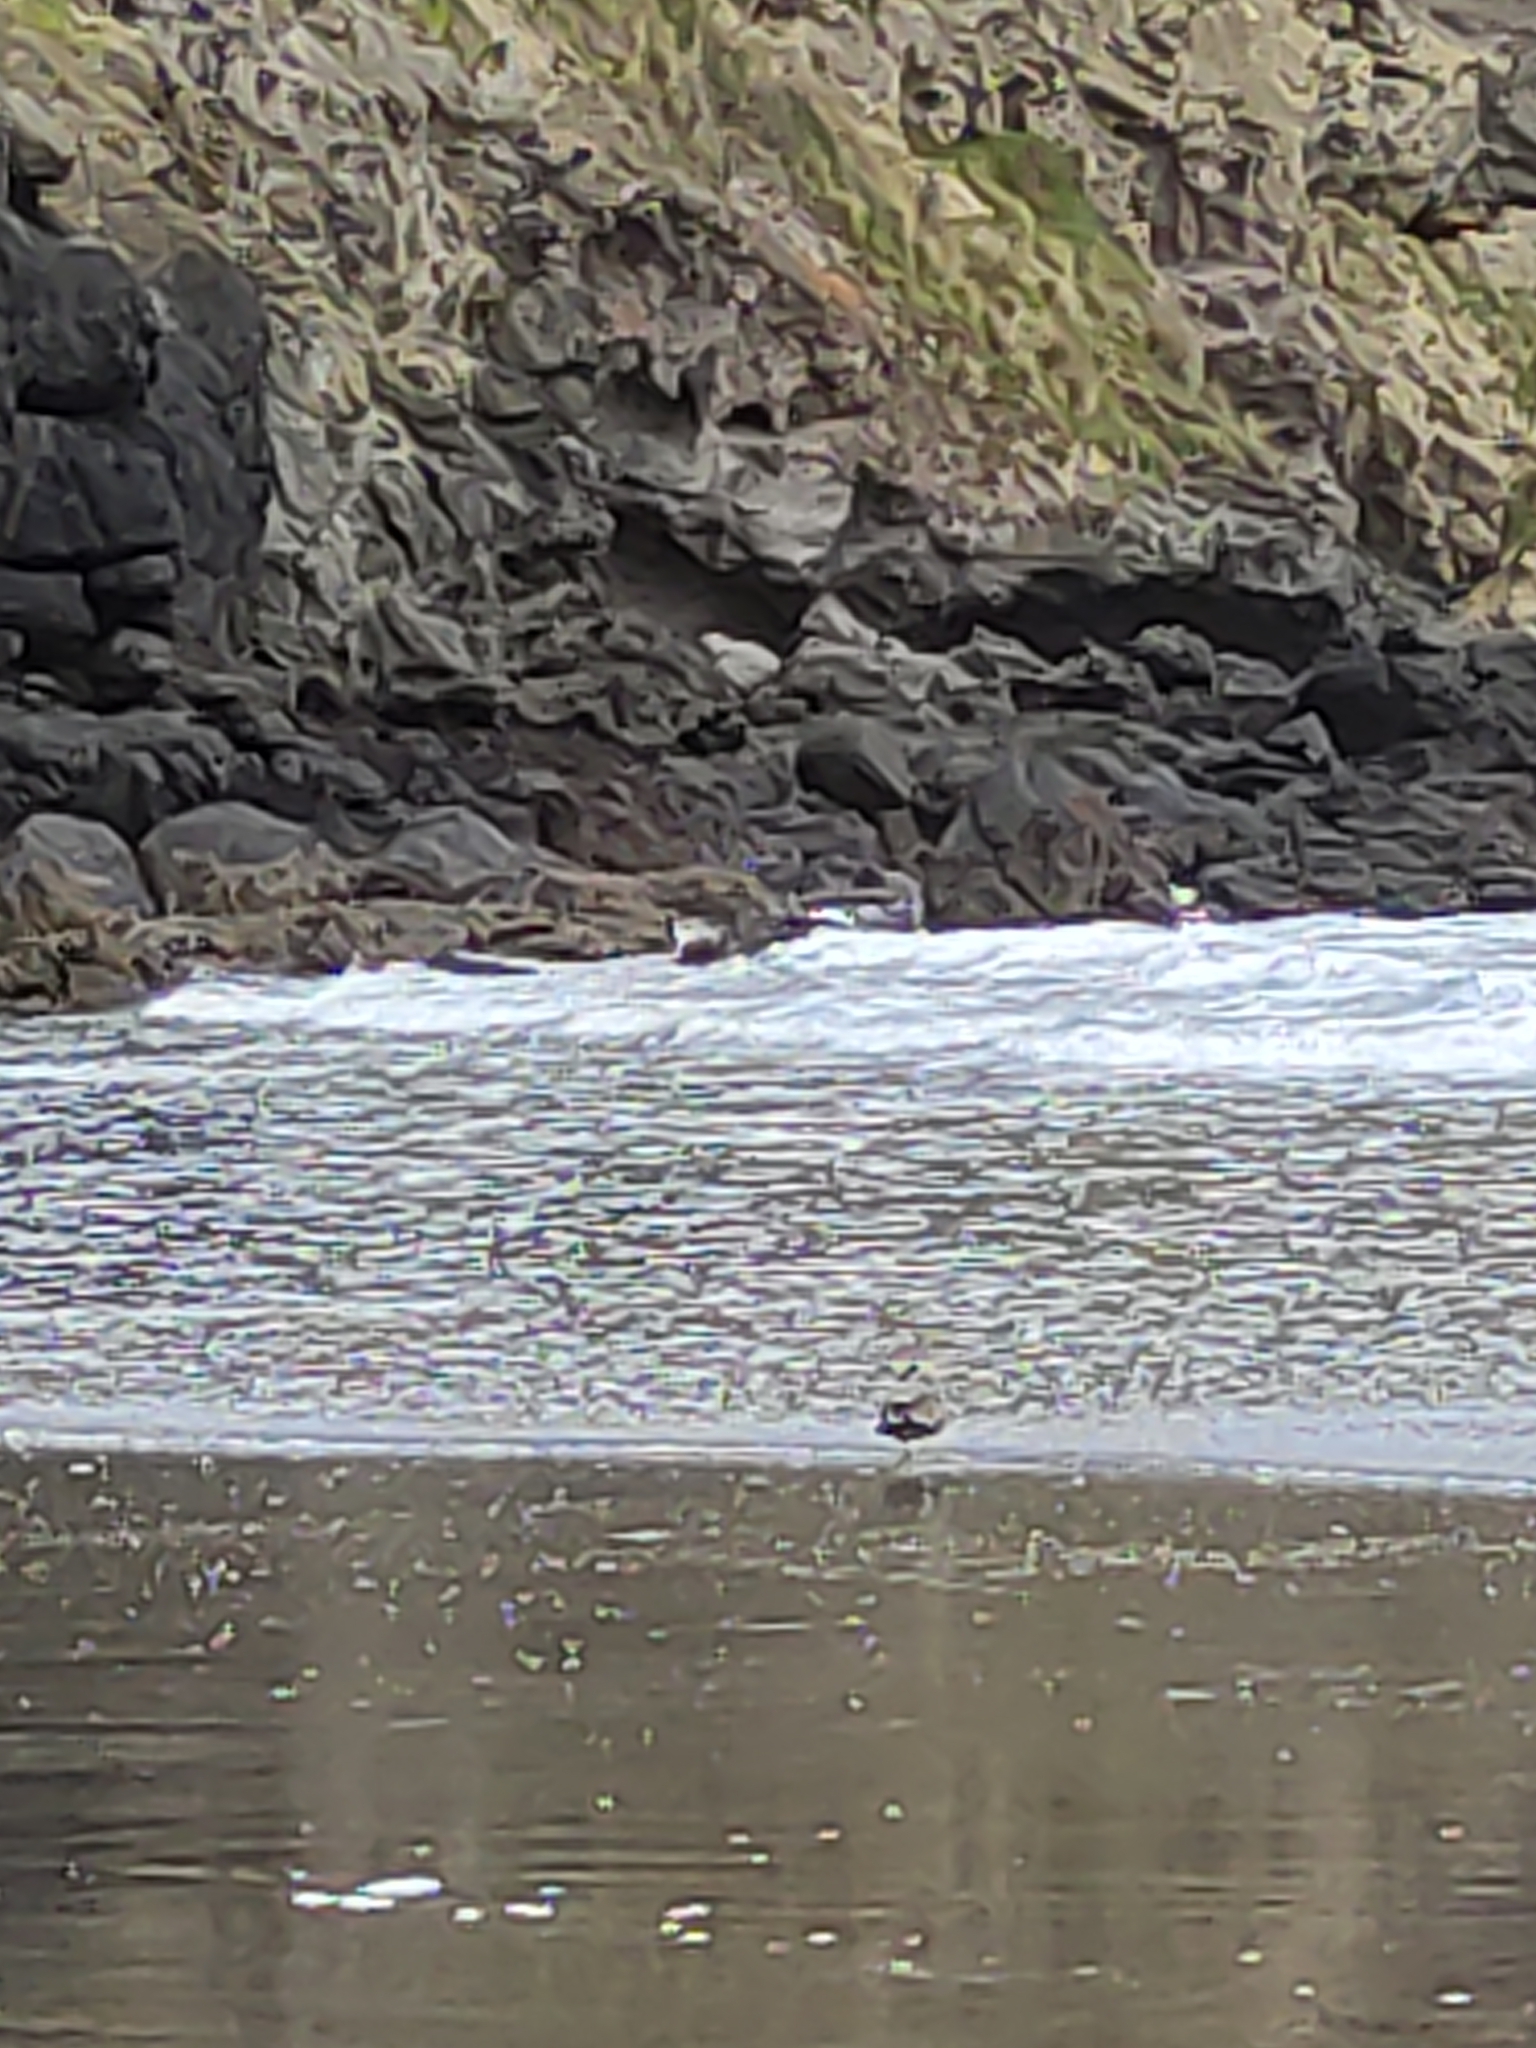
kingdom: Animalia
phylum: Chordata
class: Aves
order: Charadriiformes
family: Laridae
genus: Larus
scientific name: Larus dominicanus
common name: Kelp gull
